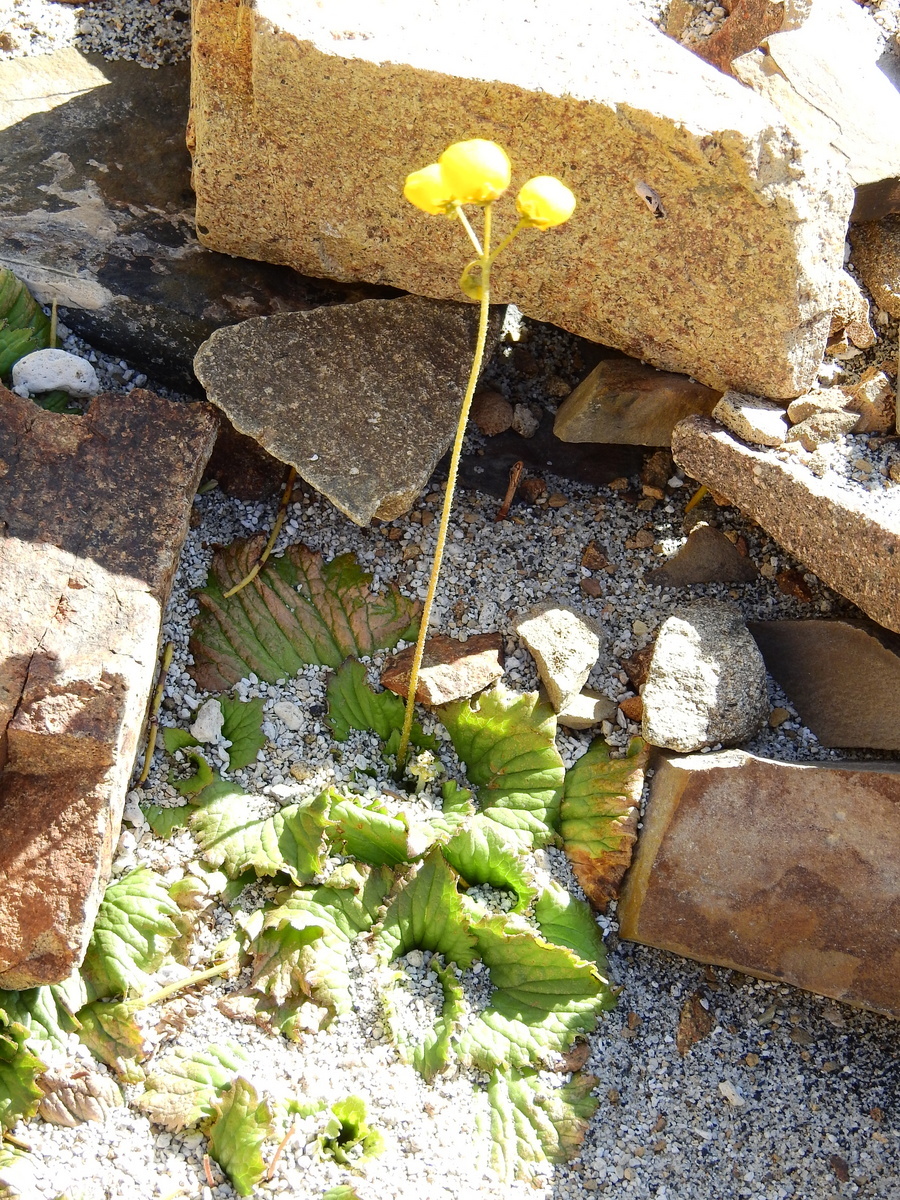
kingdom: Plantae
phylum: Tracheophyta
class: Magnoliopsida
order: Lamiales
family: Calceolariaceae
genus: Calceolaria
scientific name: Calceolaria filicaulis
